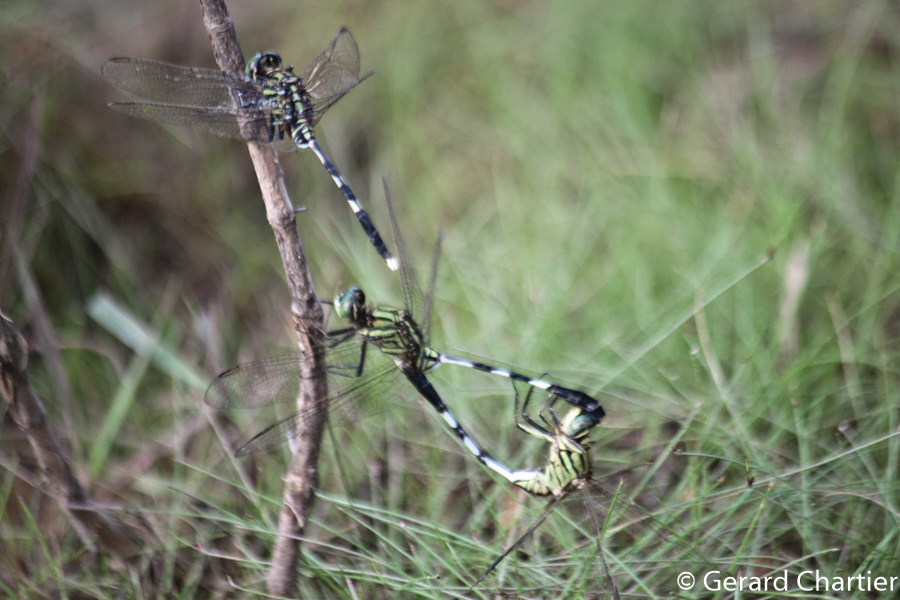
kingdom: Animalia
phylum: Arthropoda
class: Insecta
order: Odonata
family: Libellulidae
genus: Orthetrum
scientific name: Orthetrum sabina
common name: Slender skimmer
